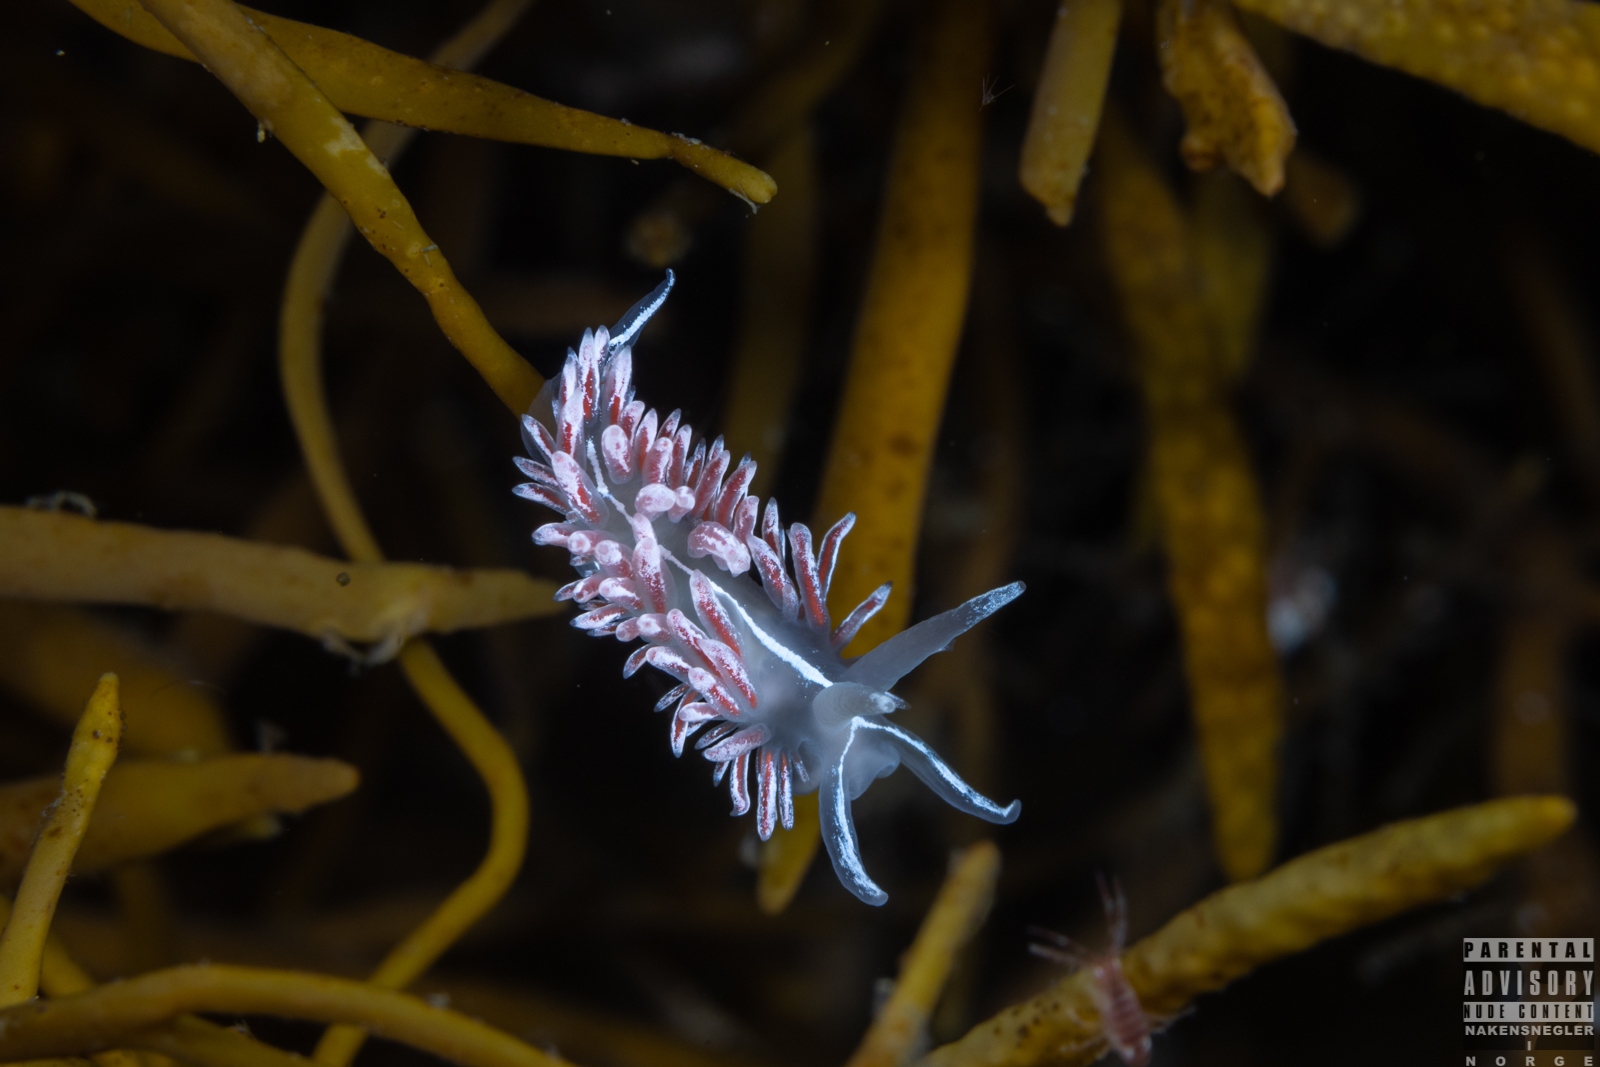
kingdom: Animalia
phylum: Mollusca
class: Gastropoda
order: Nudibranchia
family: Coryphellidae
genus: Coryphella
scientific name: Coryphella lineata
